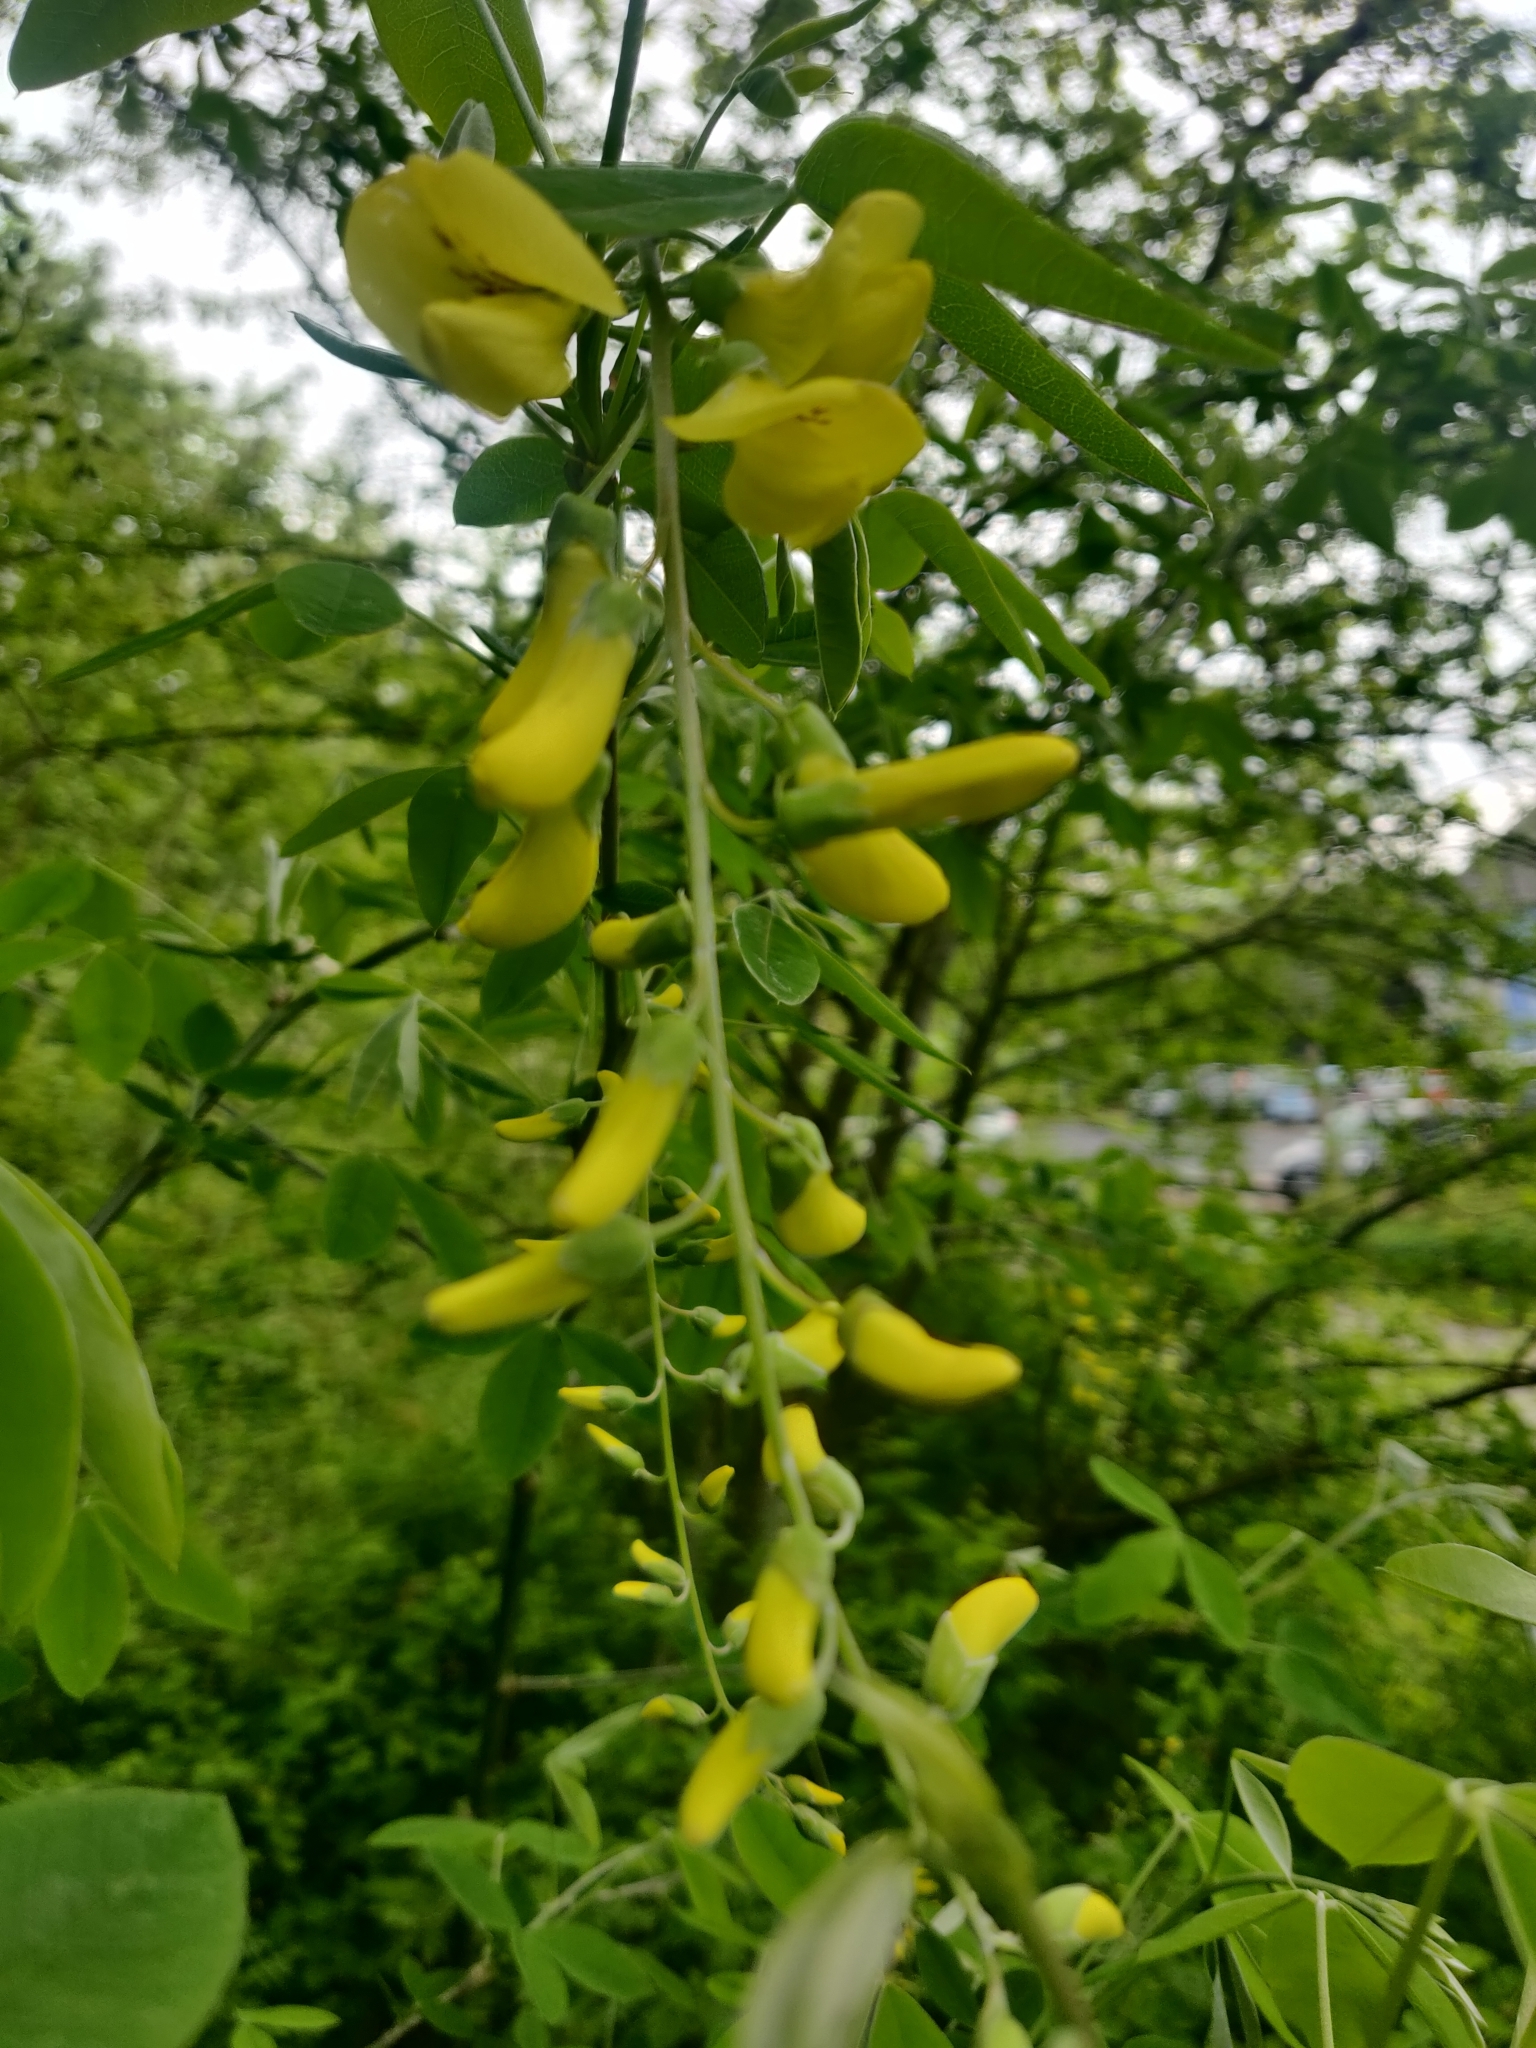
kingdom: Plantae
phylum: Tracheophyta
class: Magnoliopsida
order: Fabales
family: Fabaceae
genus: Laburnum
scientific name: Laburnum anagyroides
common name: Laburnum
